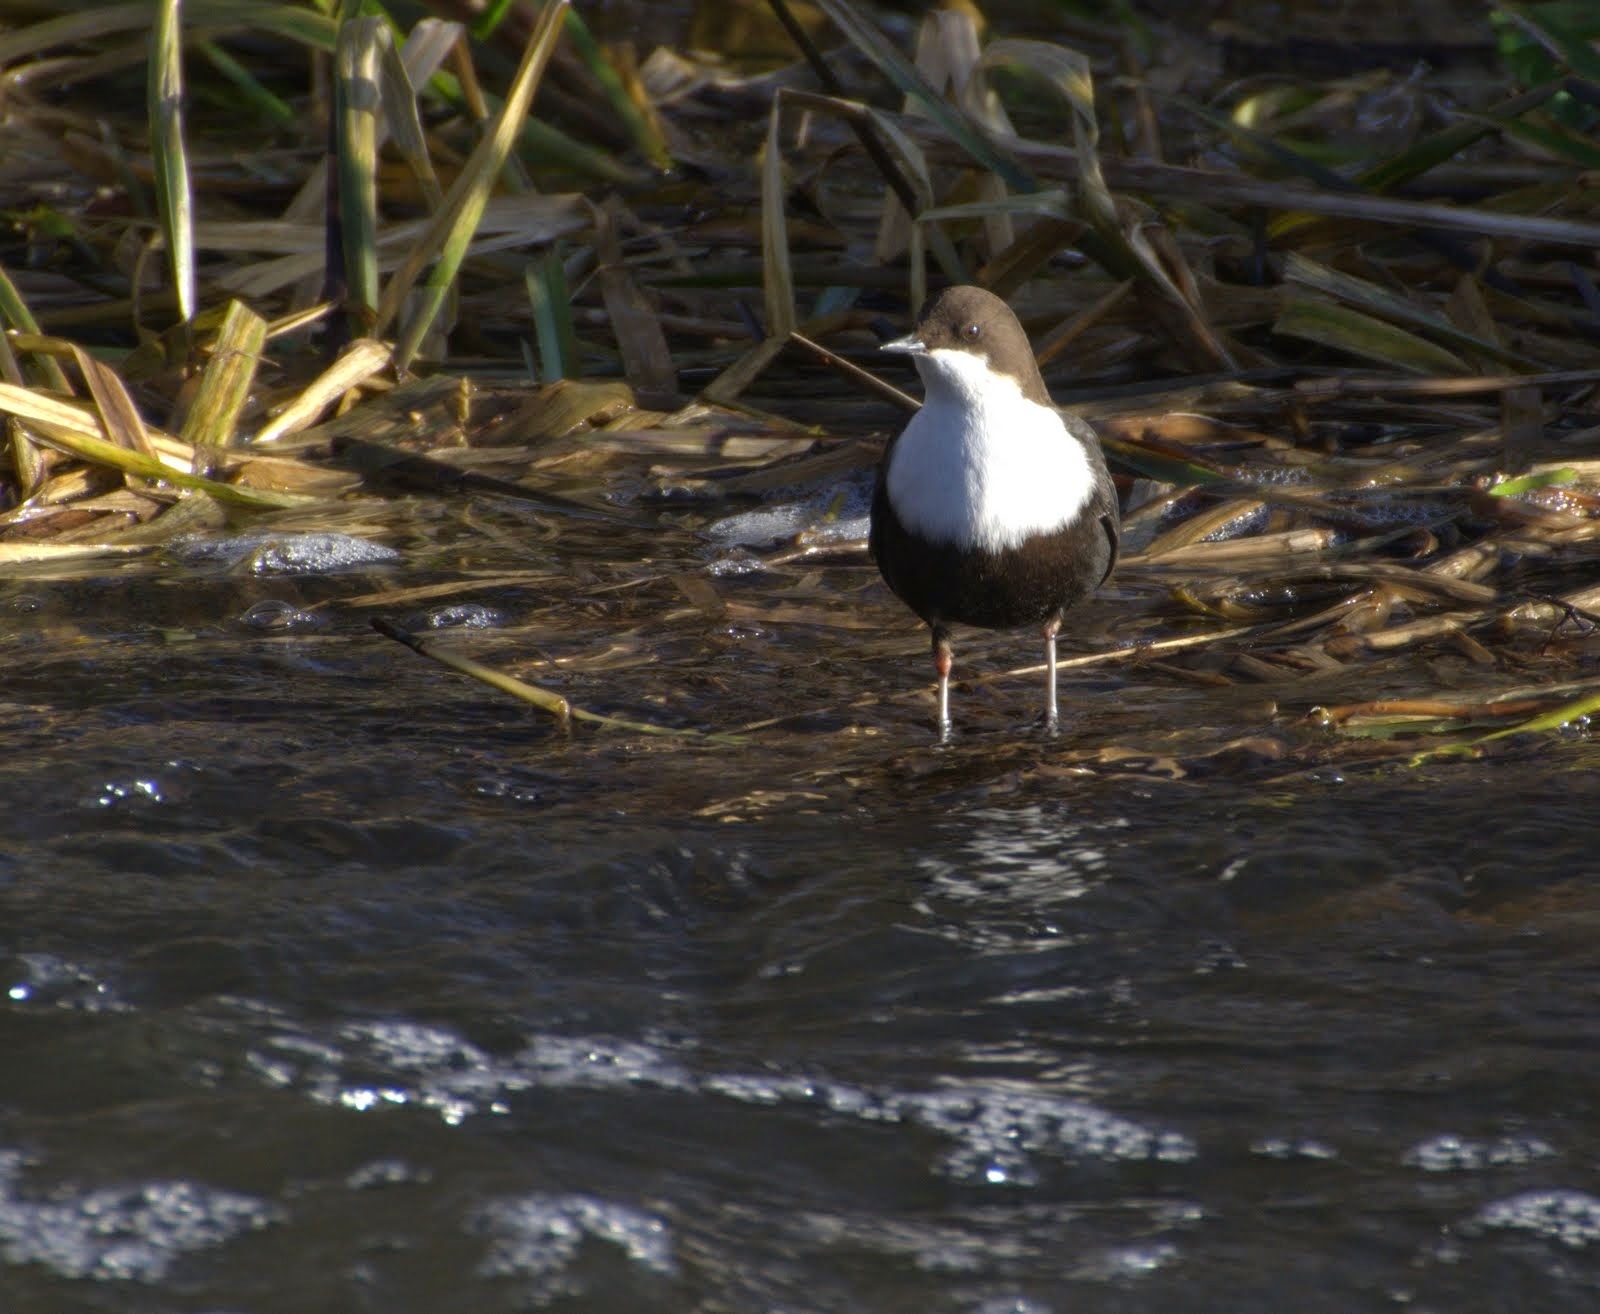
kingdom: Animalia
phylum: Chordata
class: Aves
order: Passeriformes
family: Cinclidae
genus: Cinclus
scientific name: Cinclus cinclus
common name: White-throated dipper
